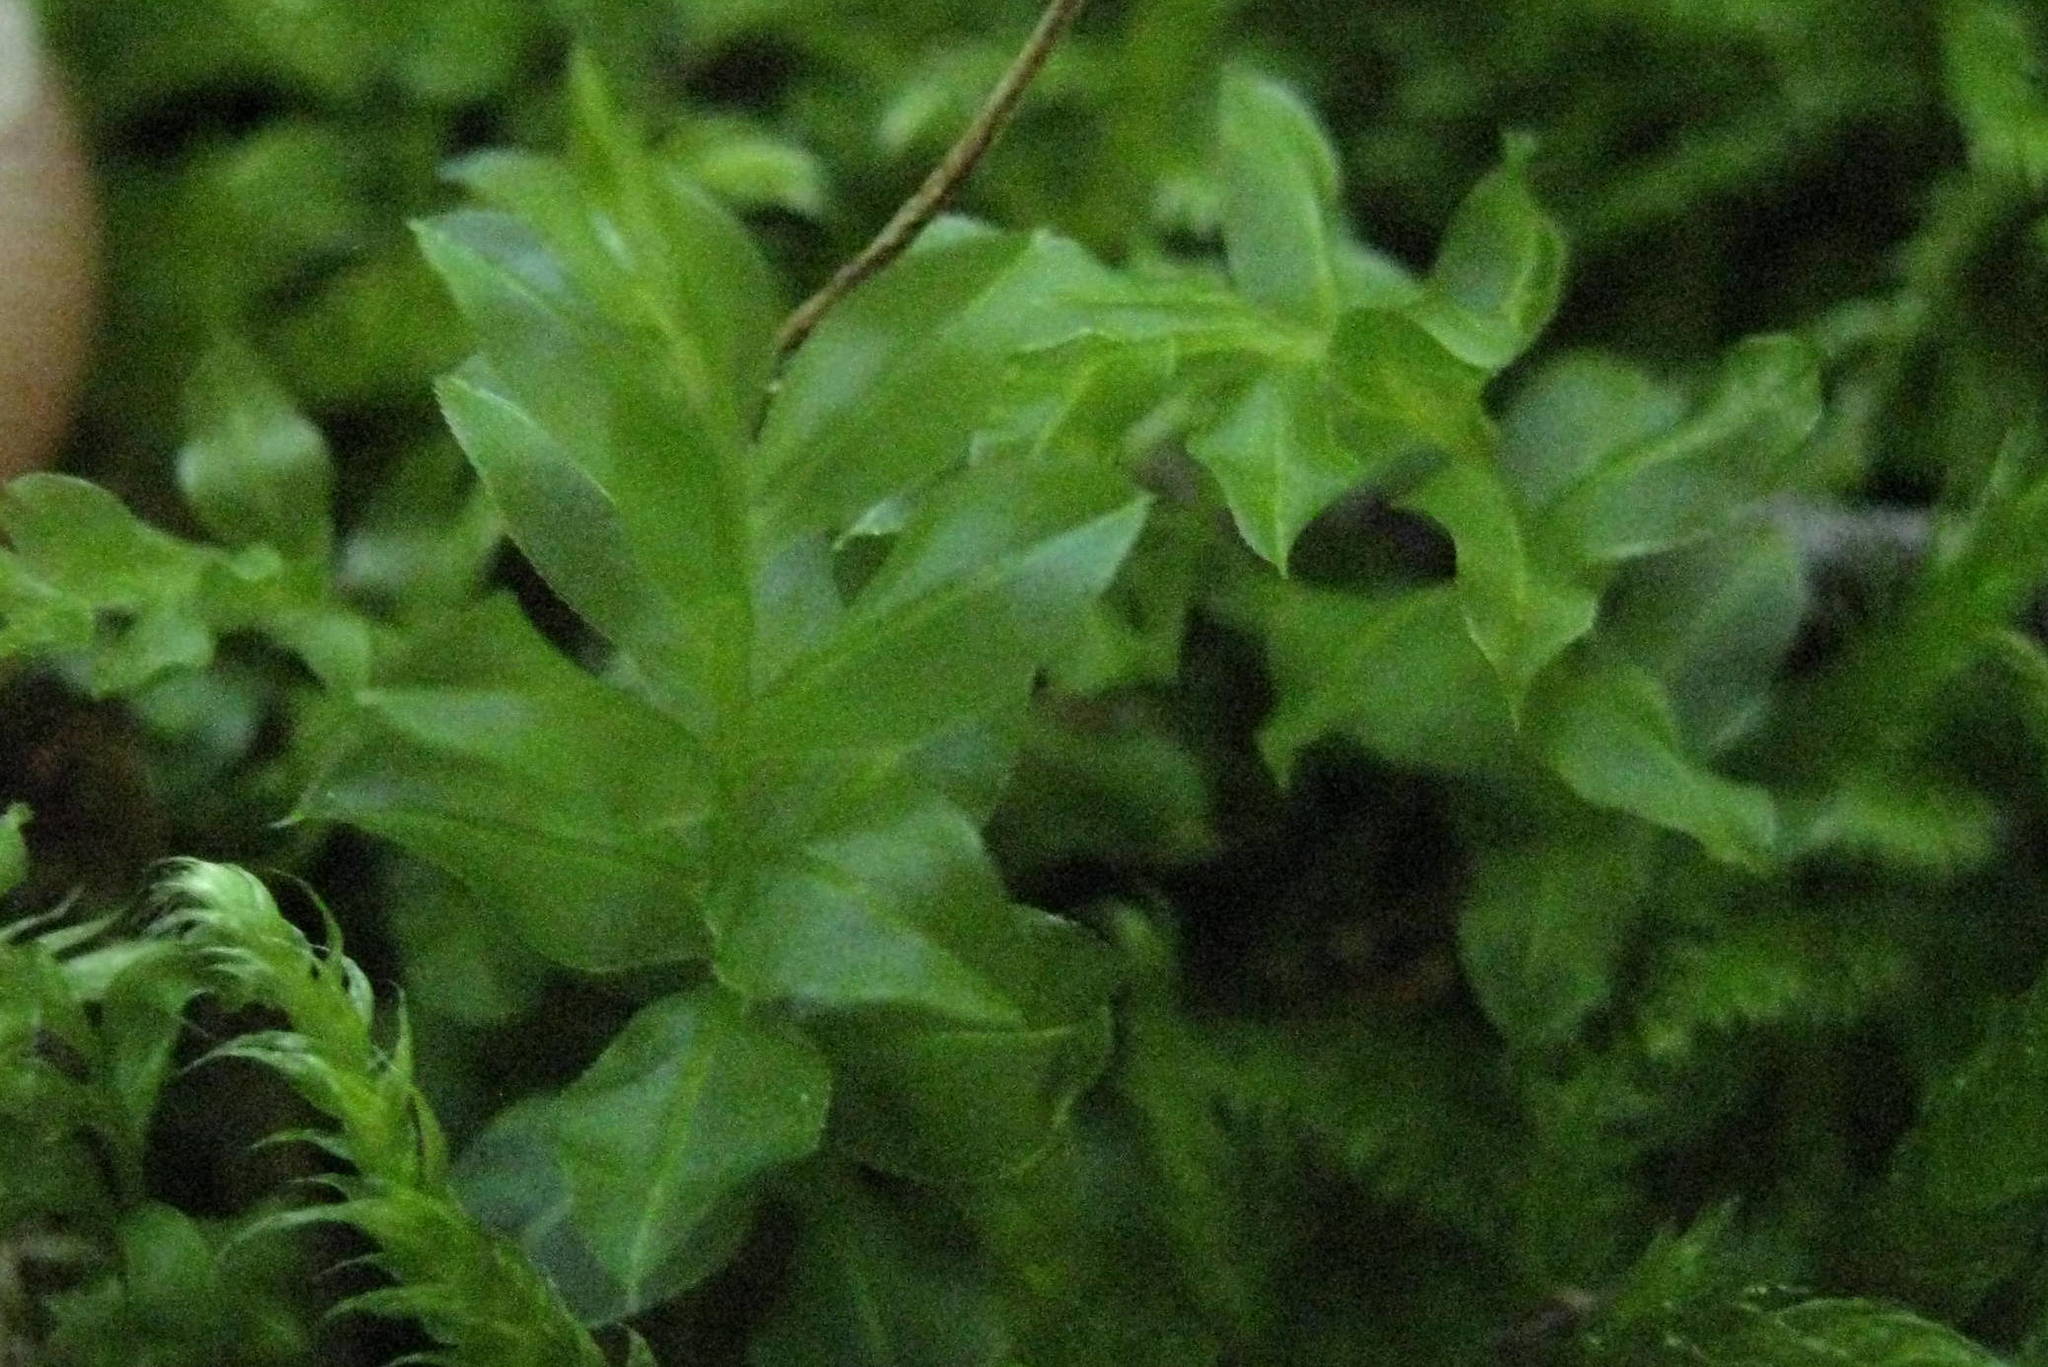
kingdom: Plantae
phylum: Bryophyta
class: Bryopsida
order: Bryales
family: Mniaceae
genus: Plagiomnium
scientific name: Plagiomnium insigne
